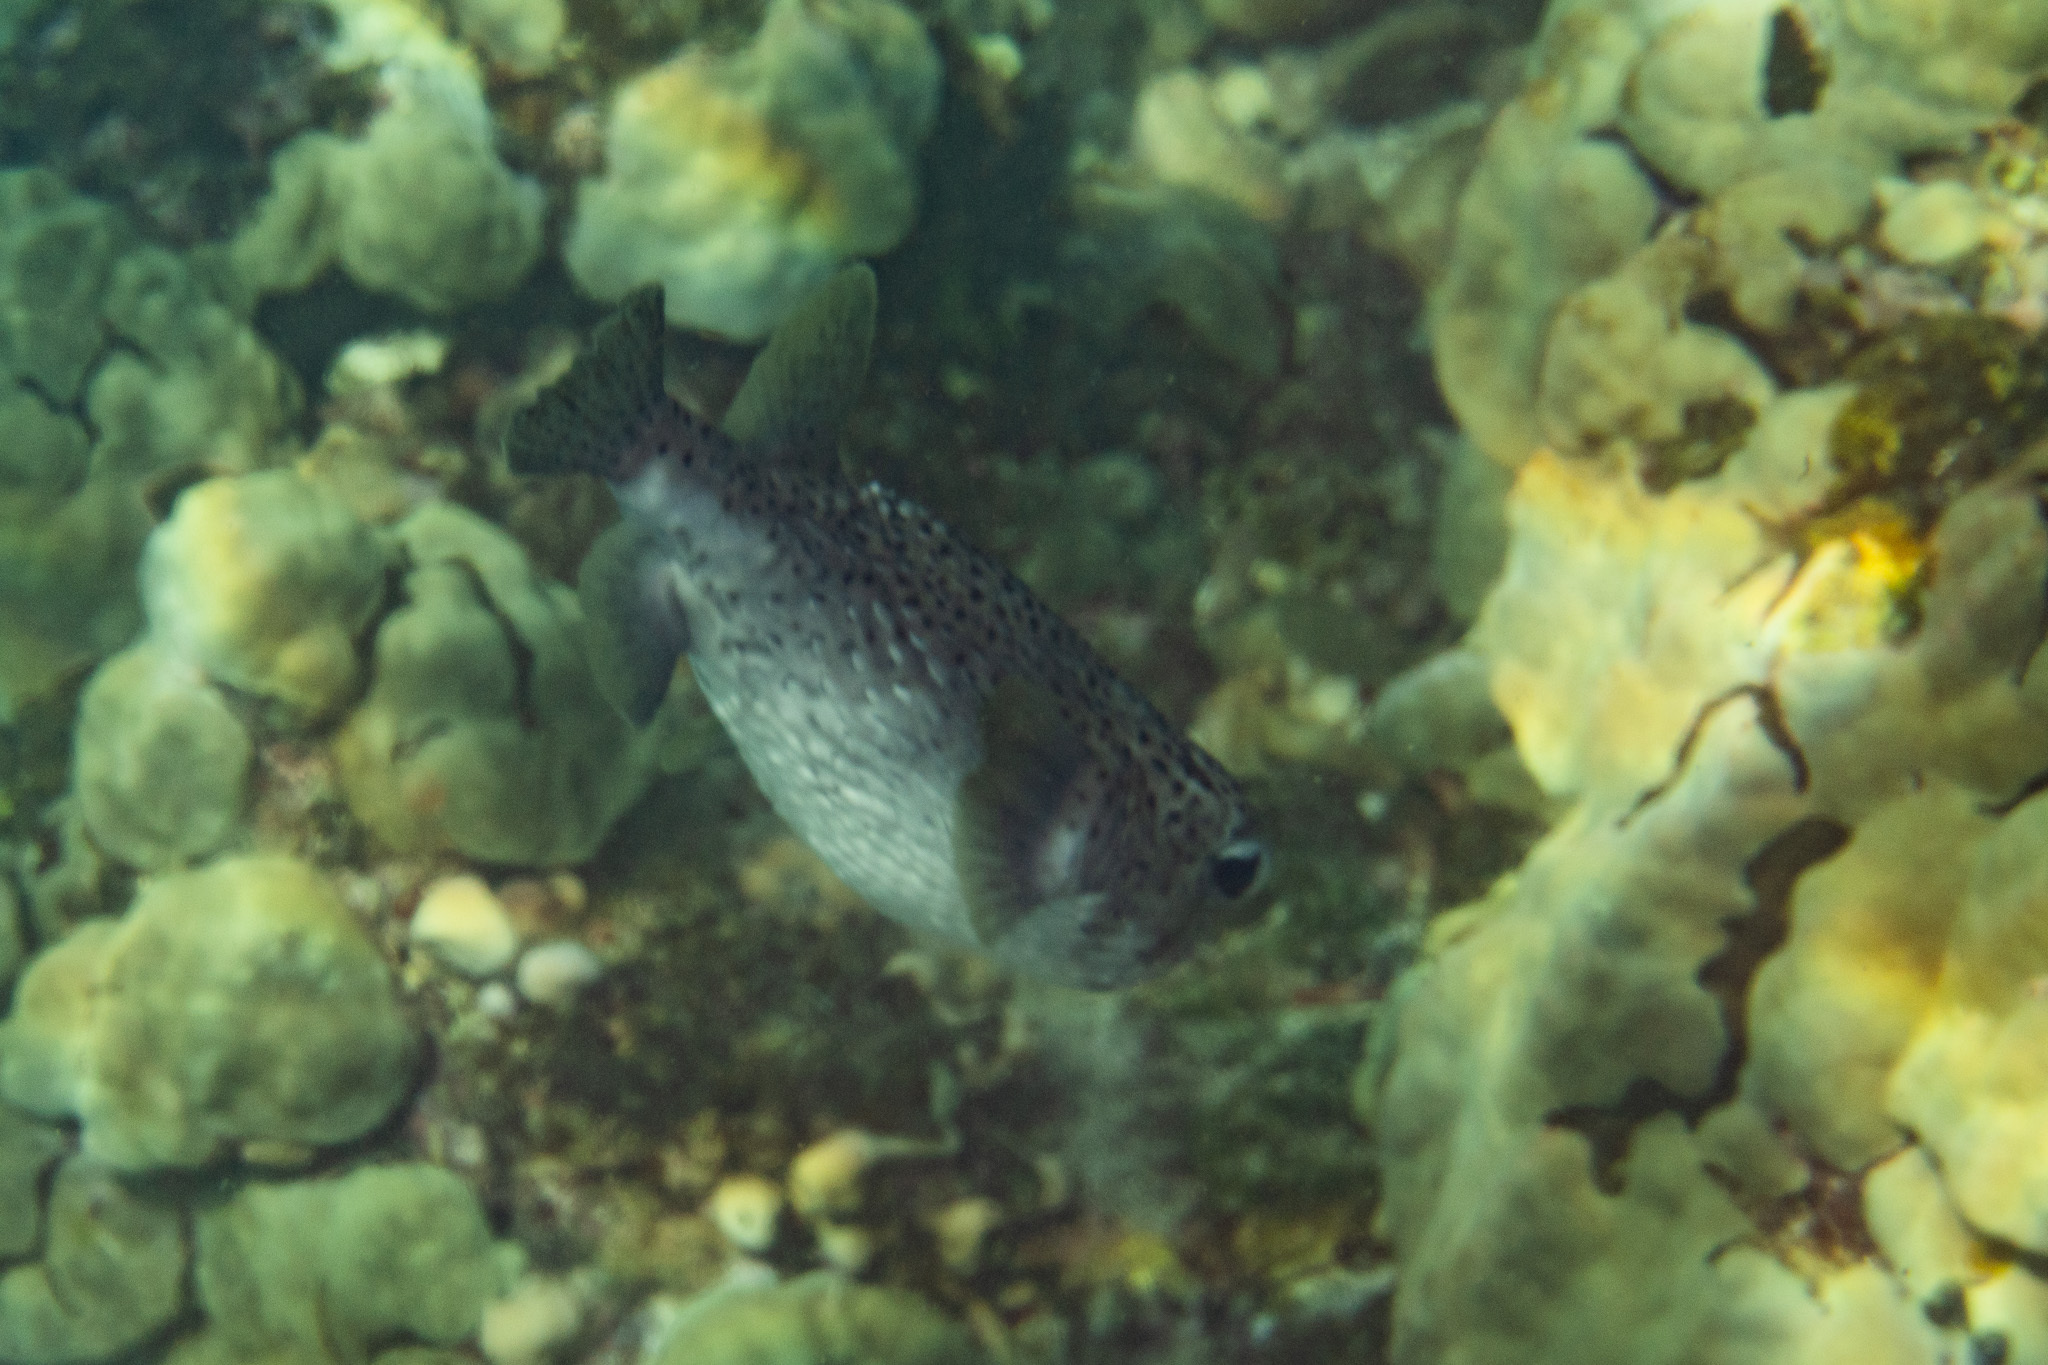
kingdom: Animalia
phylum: Chordata
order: Tetraodontiformes
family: Diodontidae
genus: Diodon
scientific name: Diodon hystrix
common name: Giant porcupinefish
